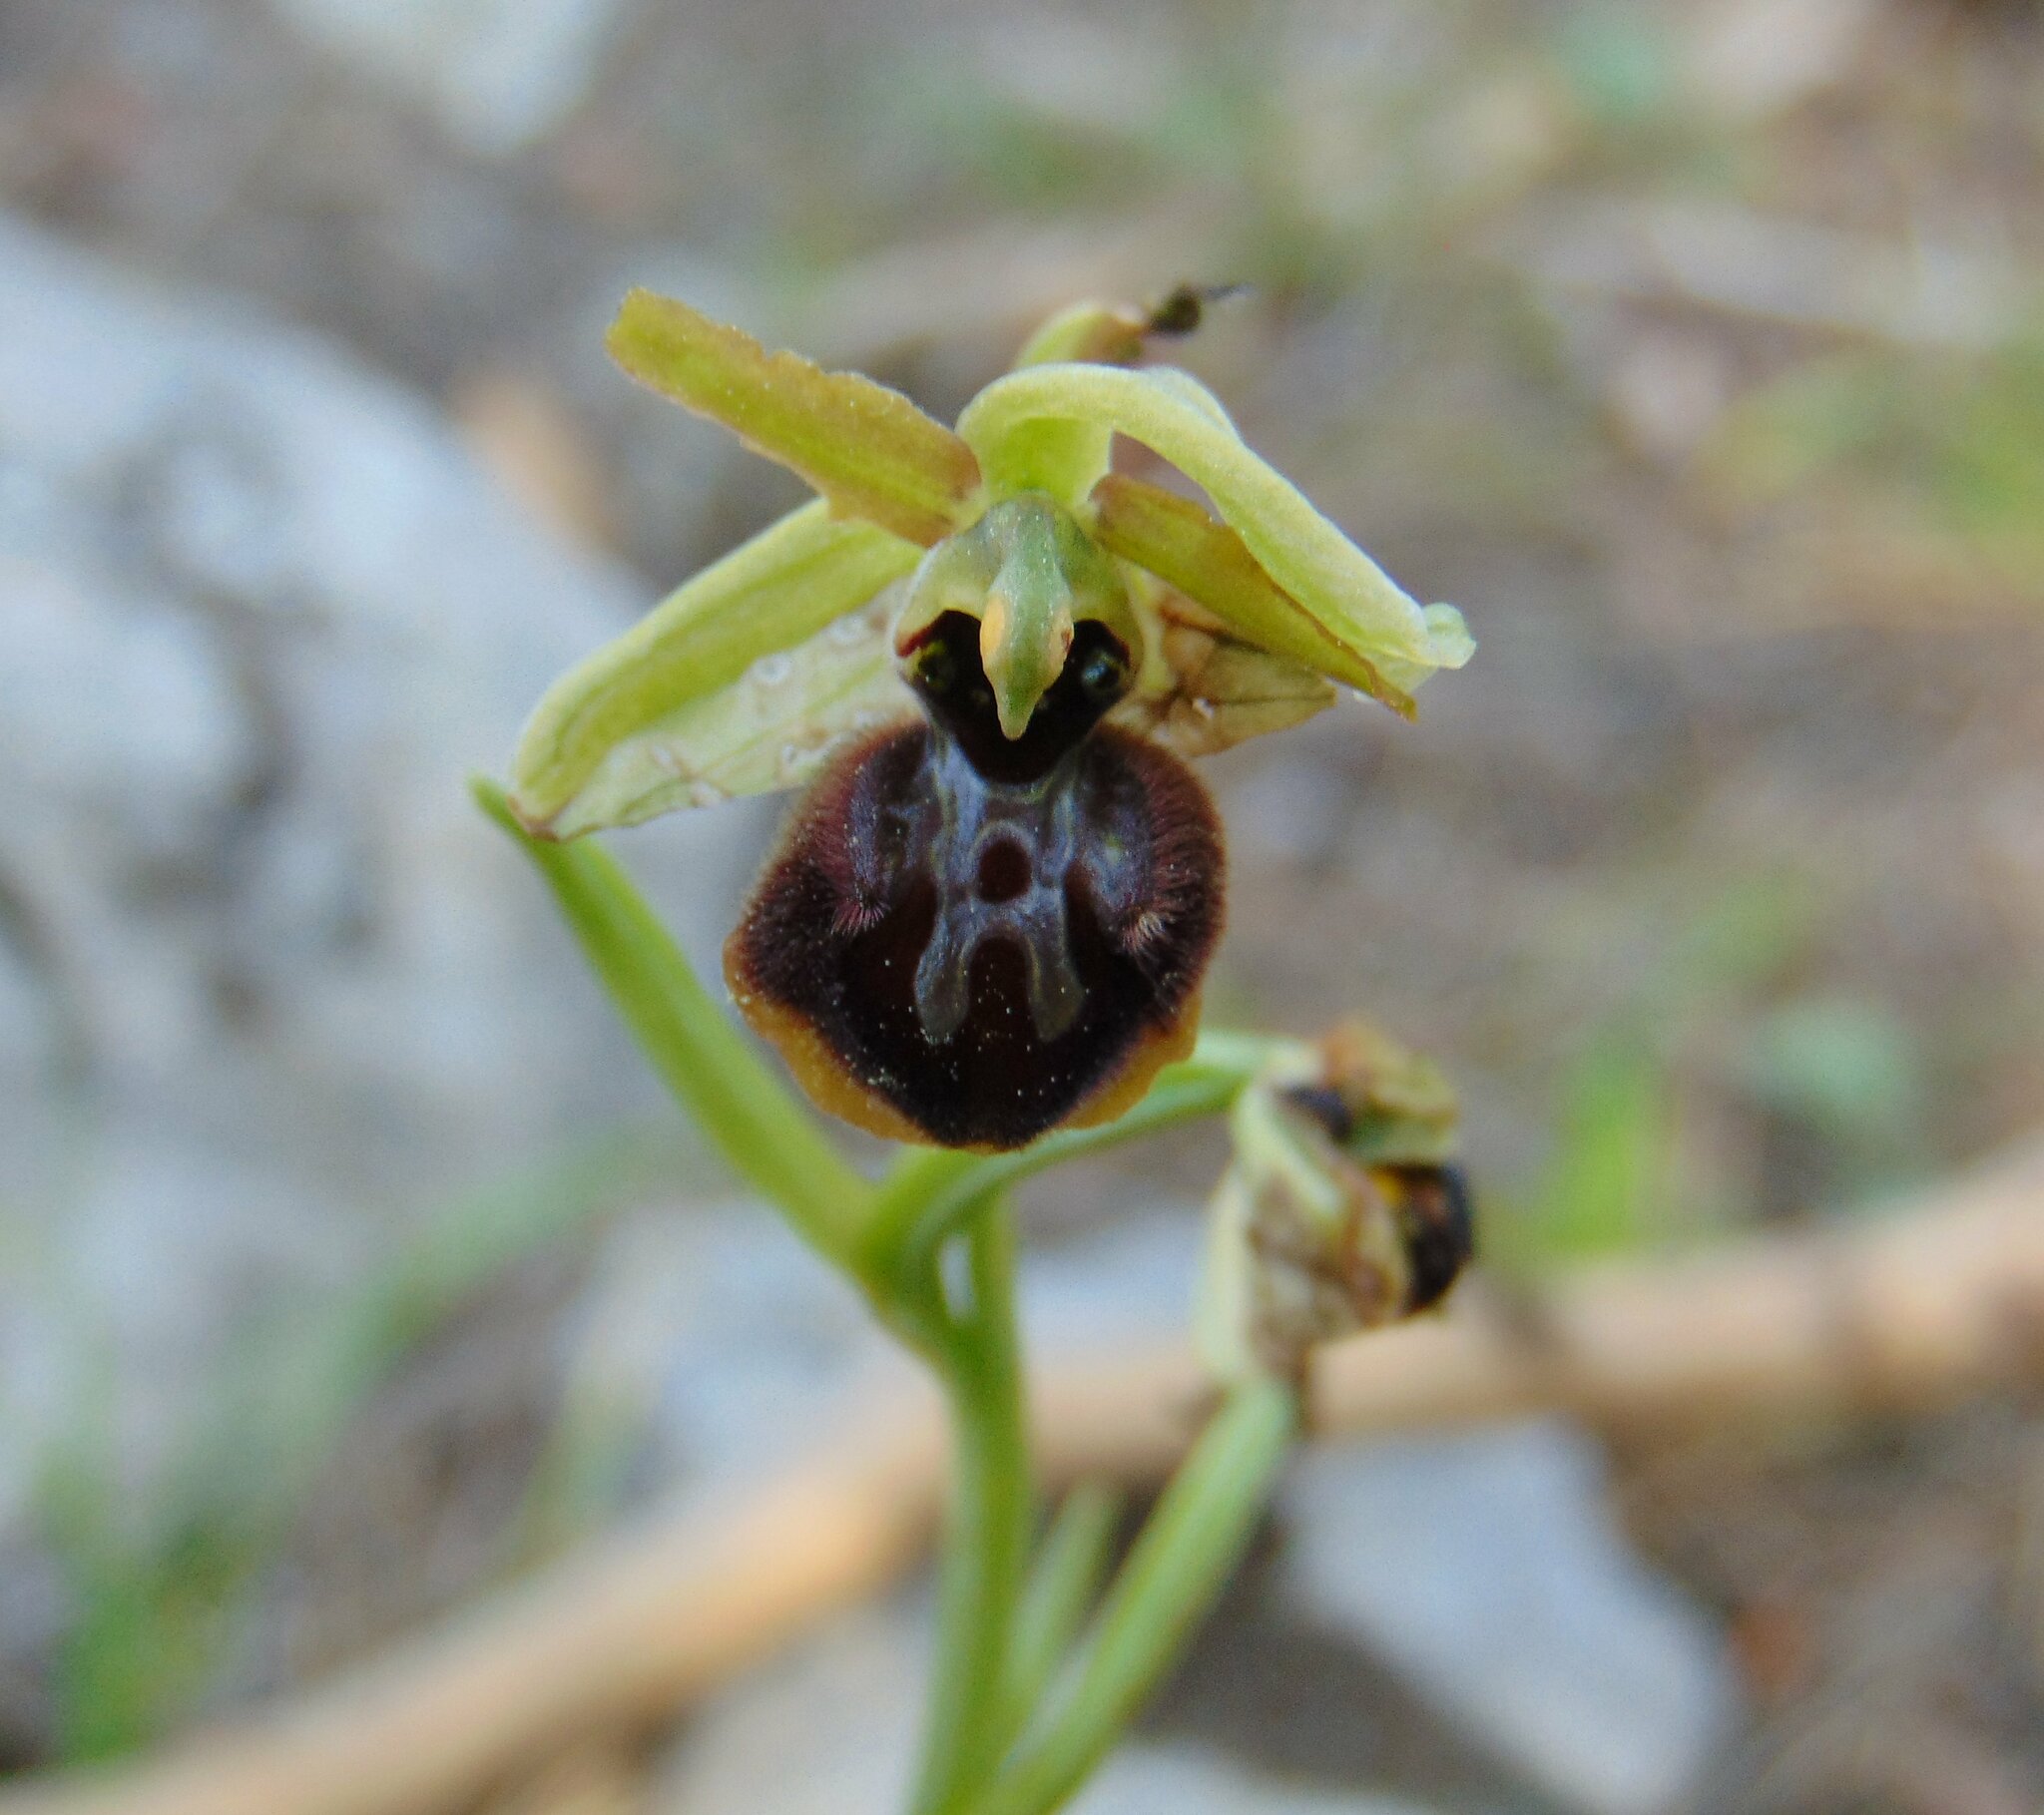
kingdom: Plantae
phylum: Tracheophyta
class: Liliopsida
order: Asparagales
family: Orchidaceae
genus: Ophrys
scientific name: Ophrys sphegodes
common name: Early spider-orchid
